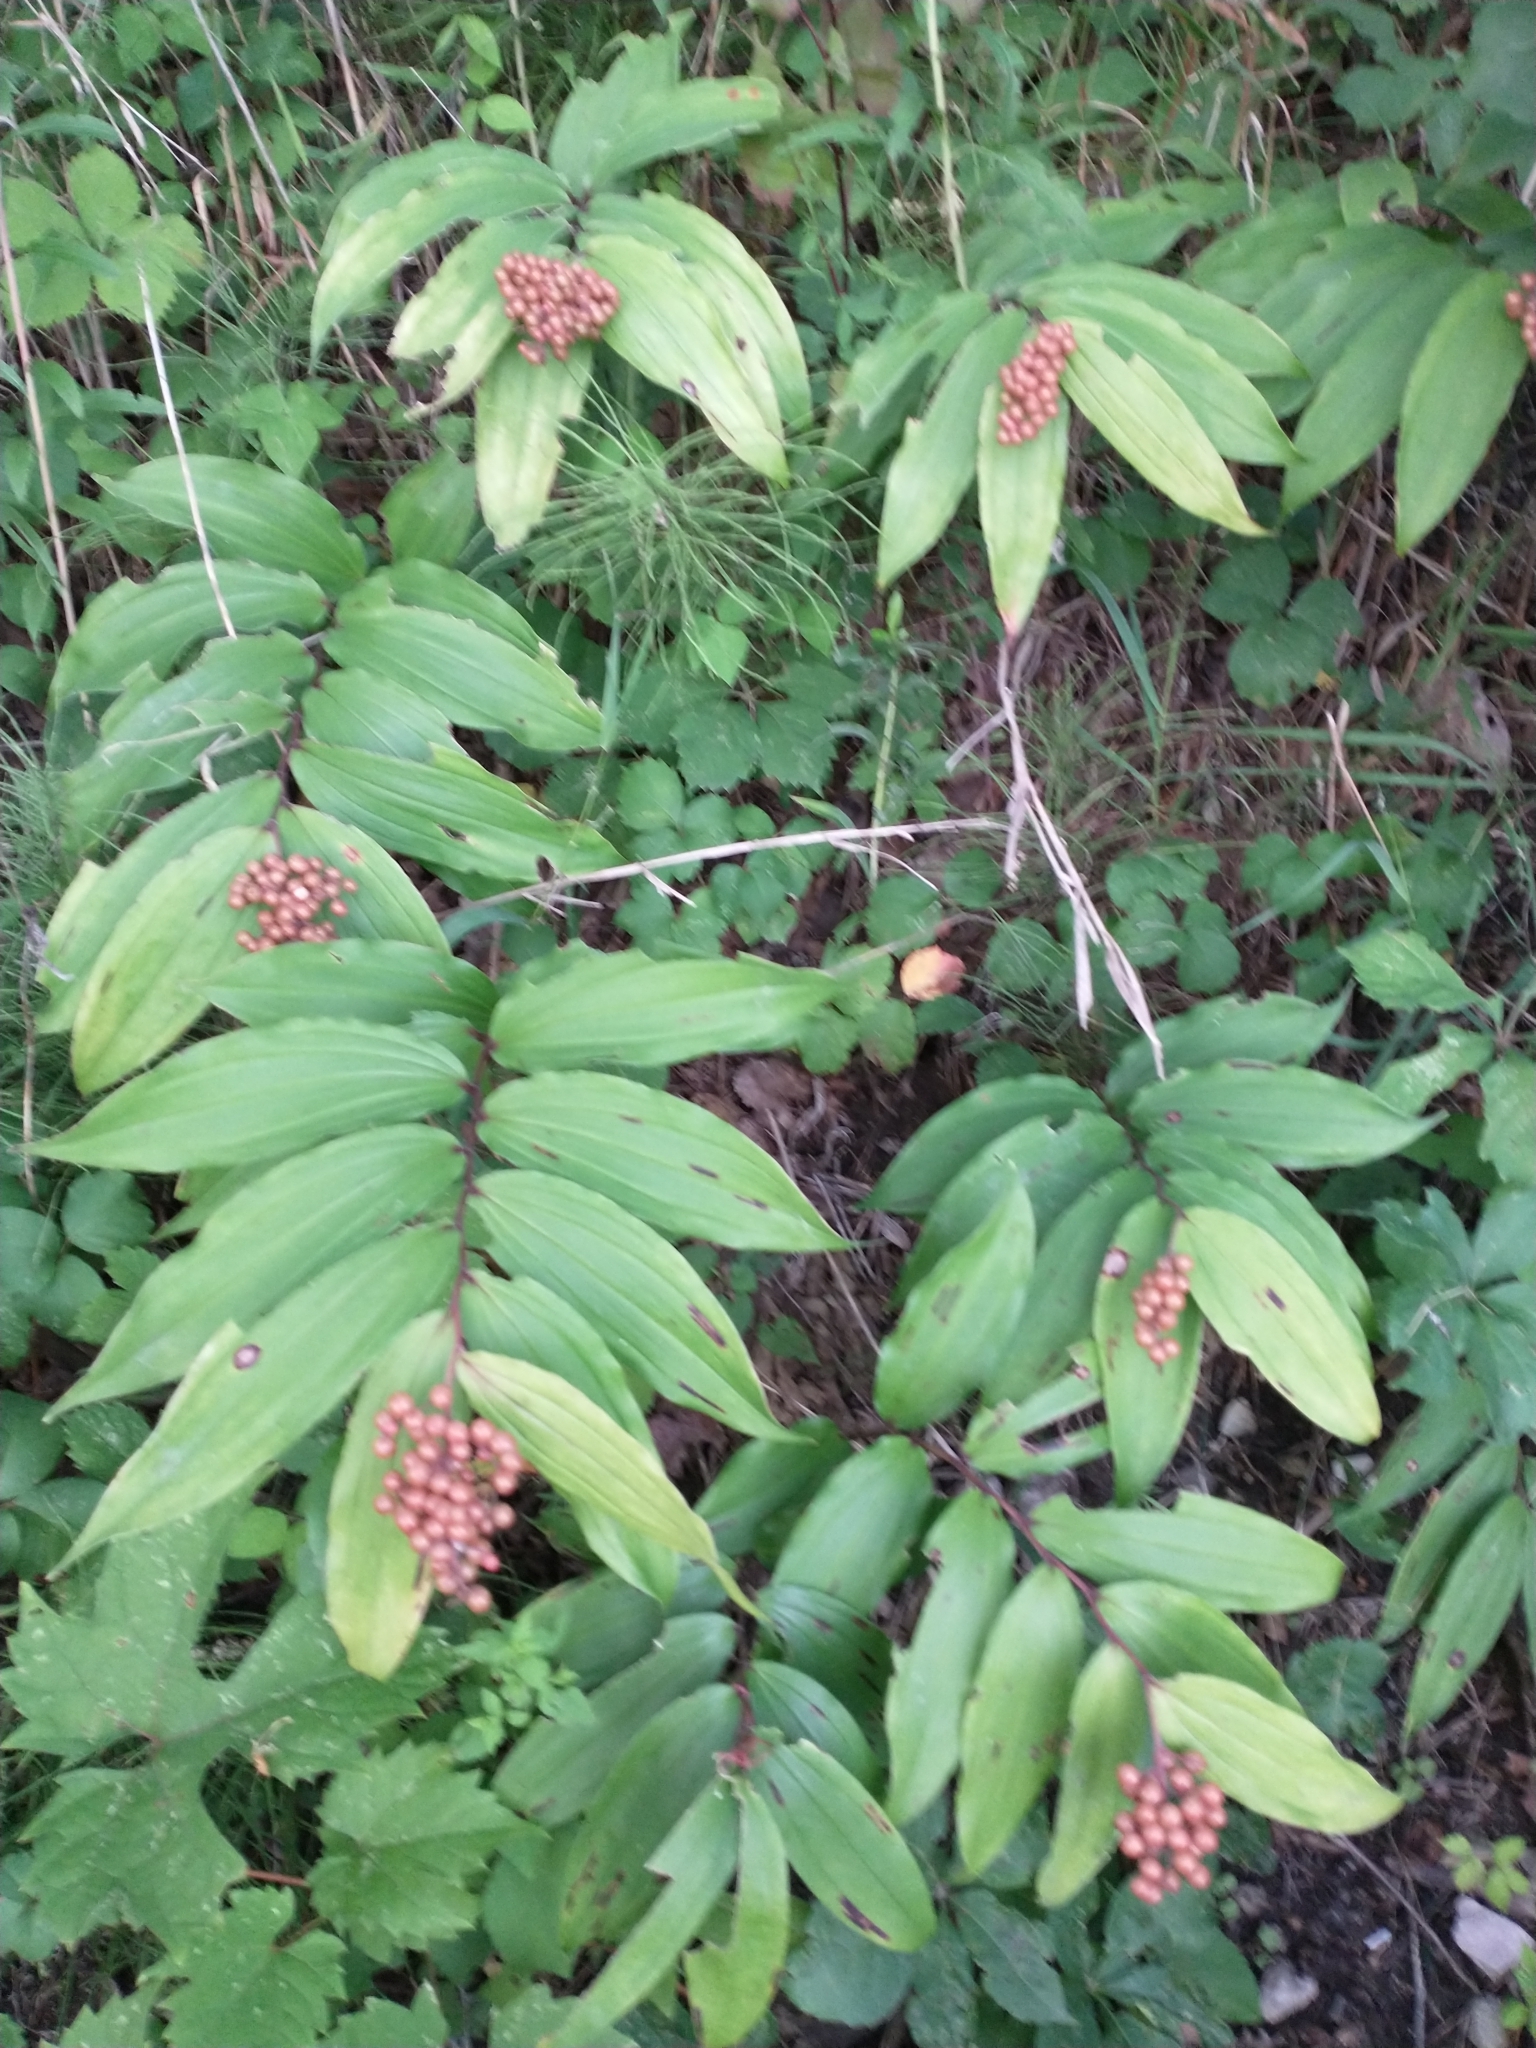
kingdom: Plantae
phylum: Tracheophyta
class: Liliopsida
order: Asparagales
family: Asparagaceae
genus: Maianthemum
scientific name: Maianthemum racemosum
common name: False spikenard
